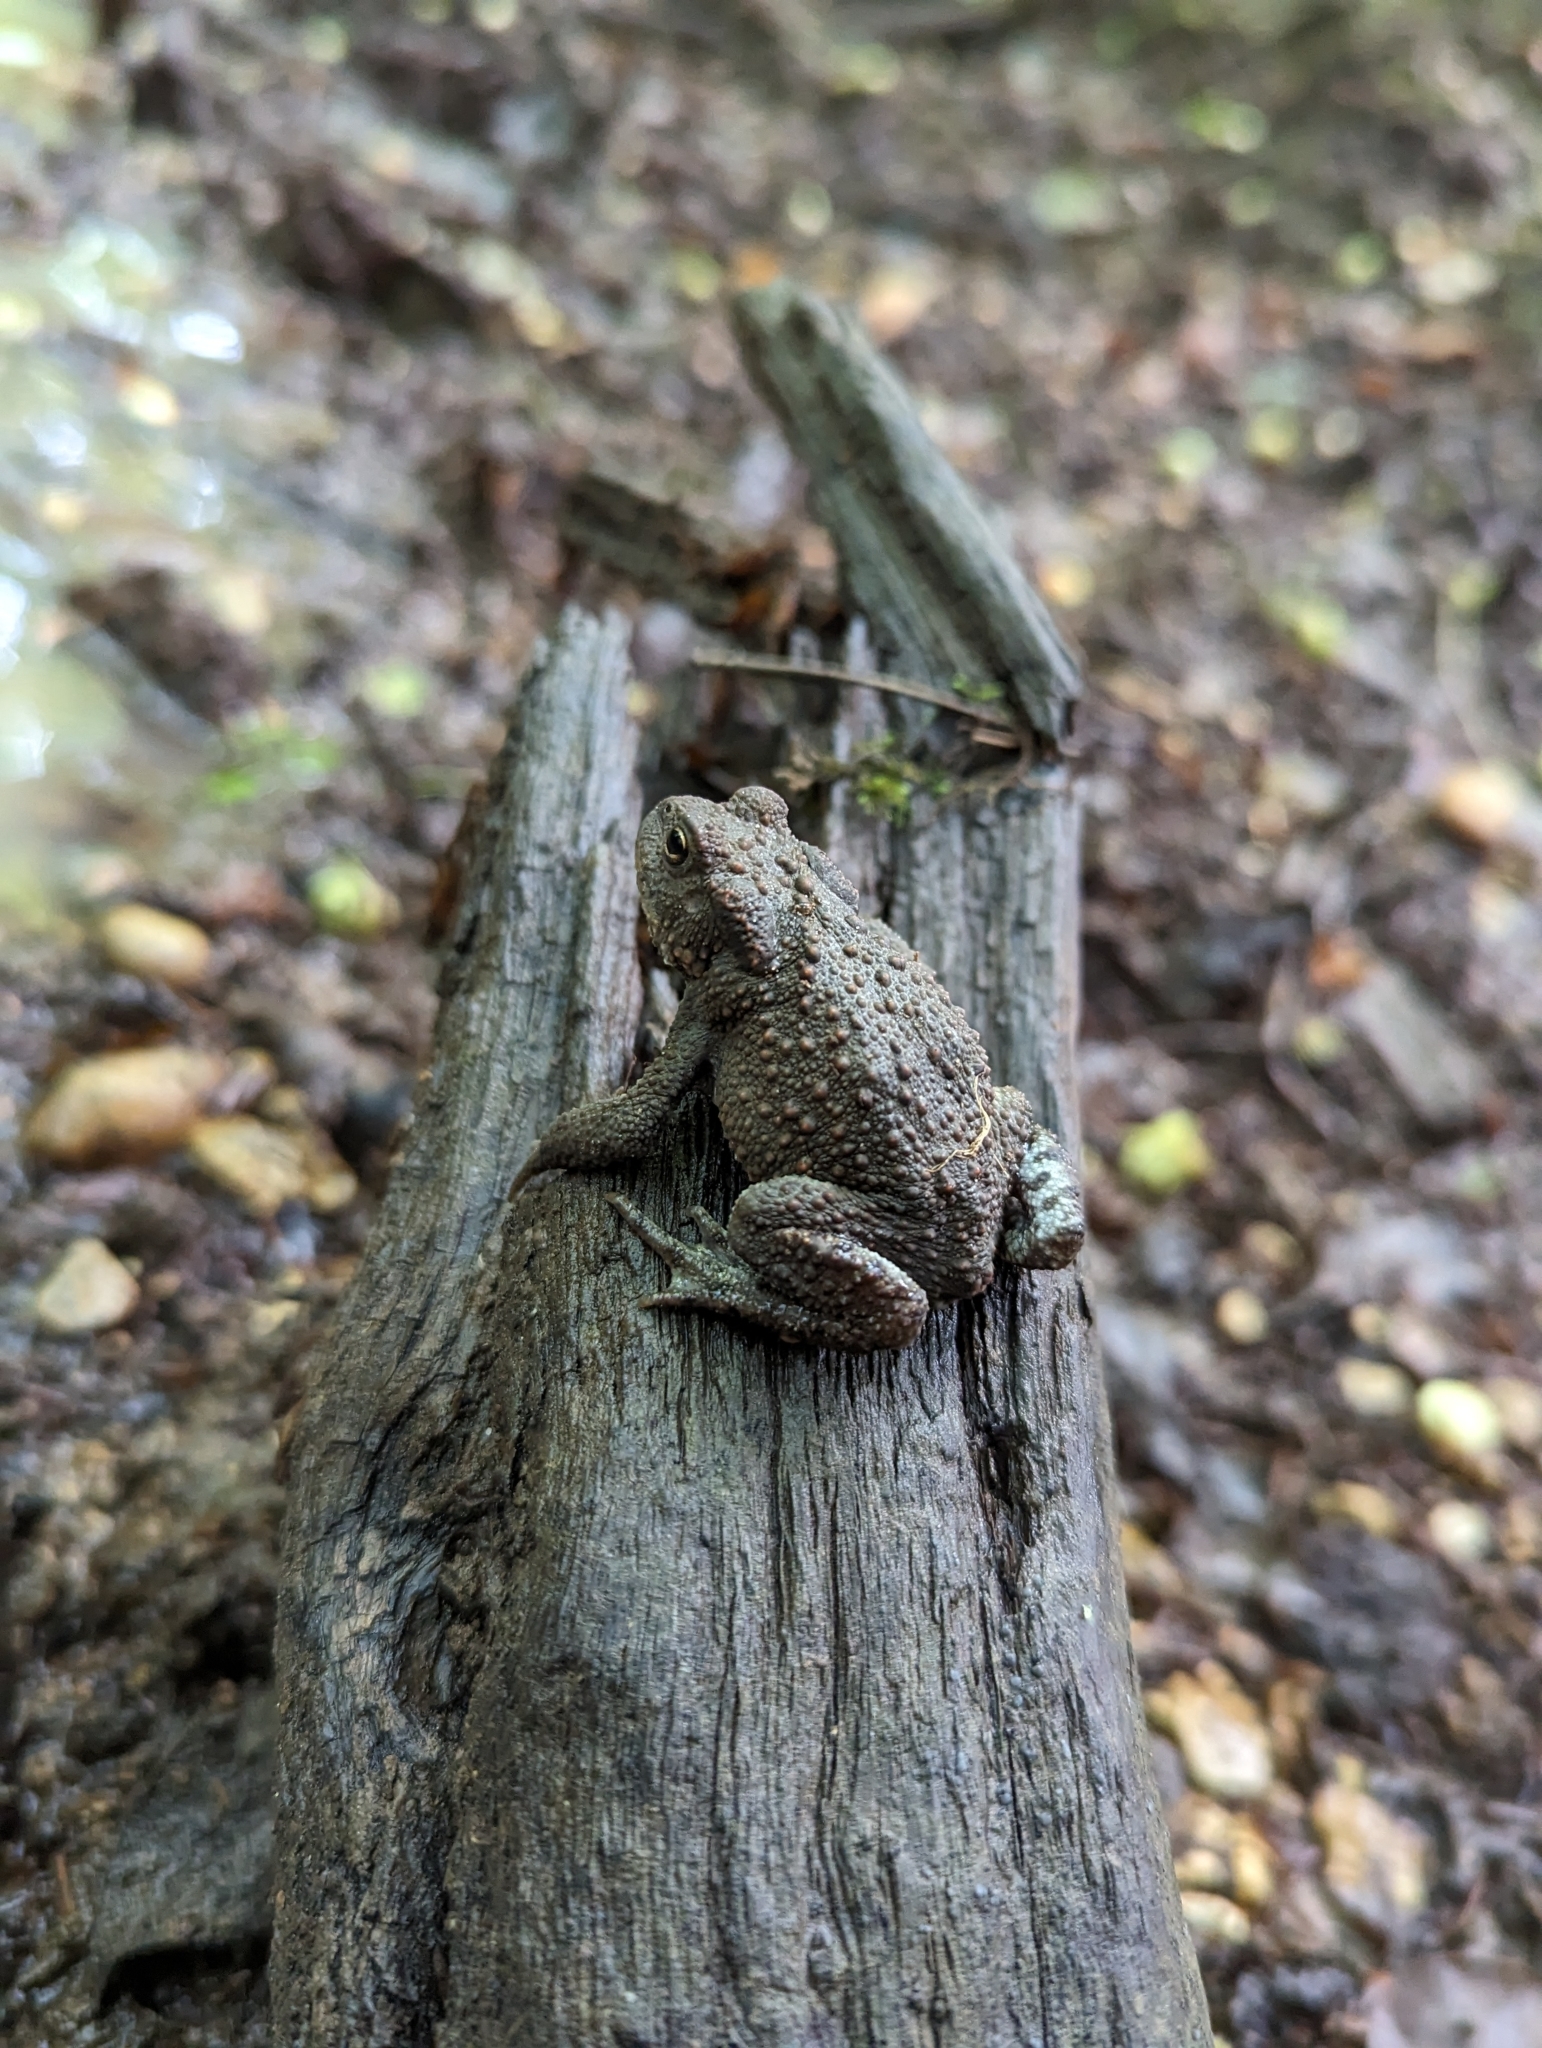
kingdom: Animalia
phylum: Chordata
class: Amphibia
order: Anura
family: Bufonidae
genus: Bufo
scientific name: Bufo bufo
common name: Common toad
